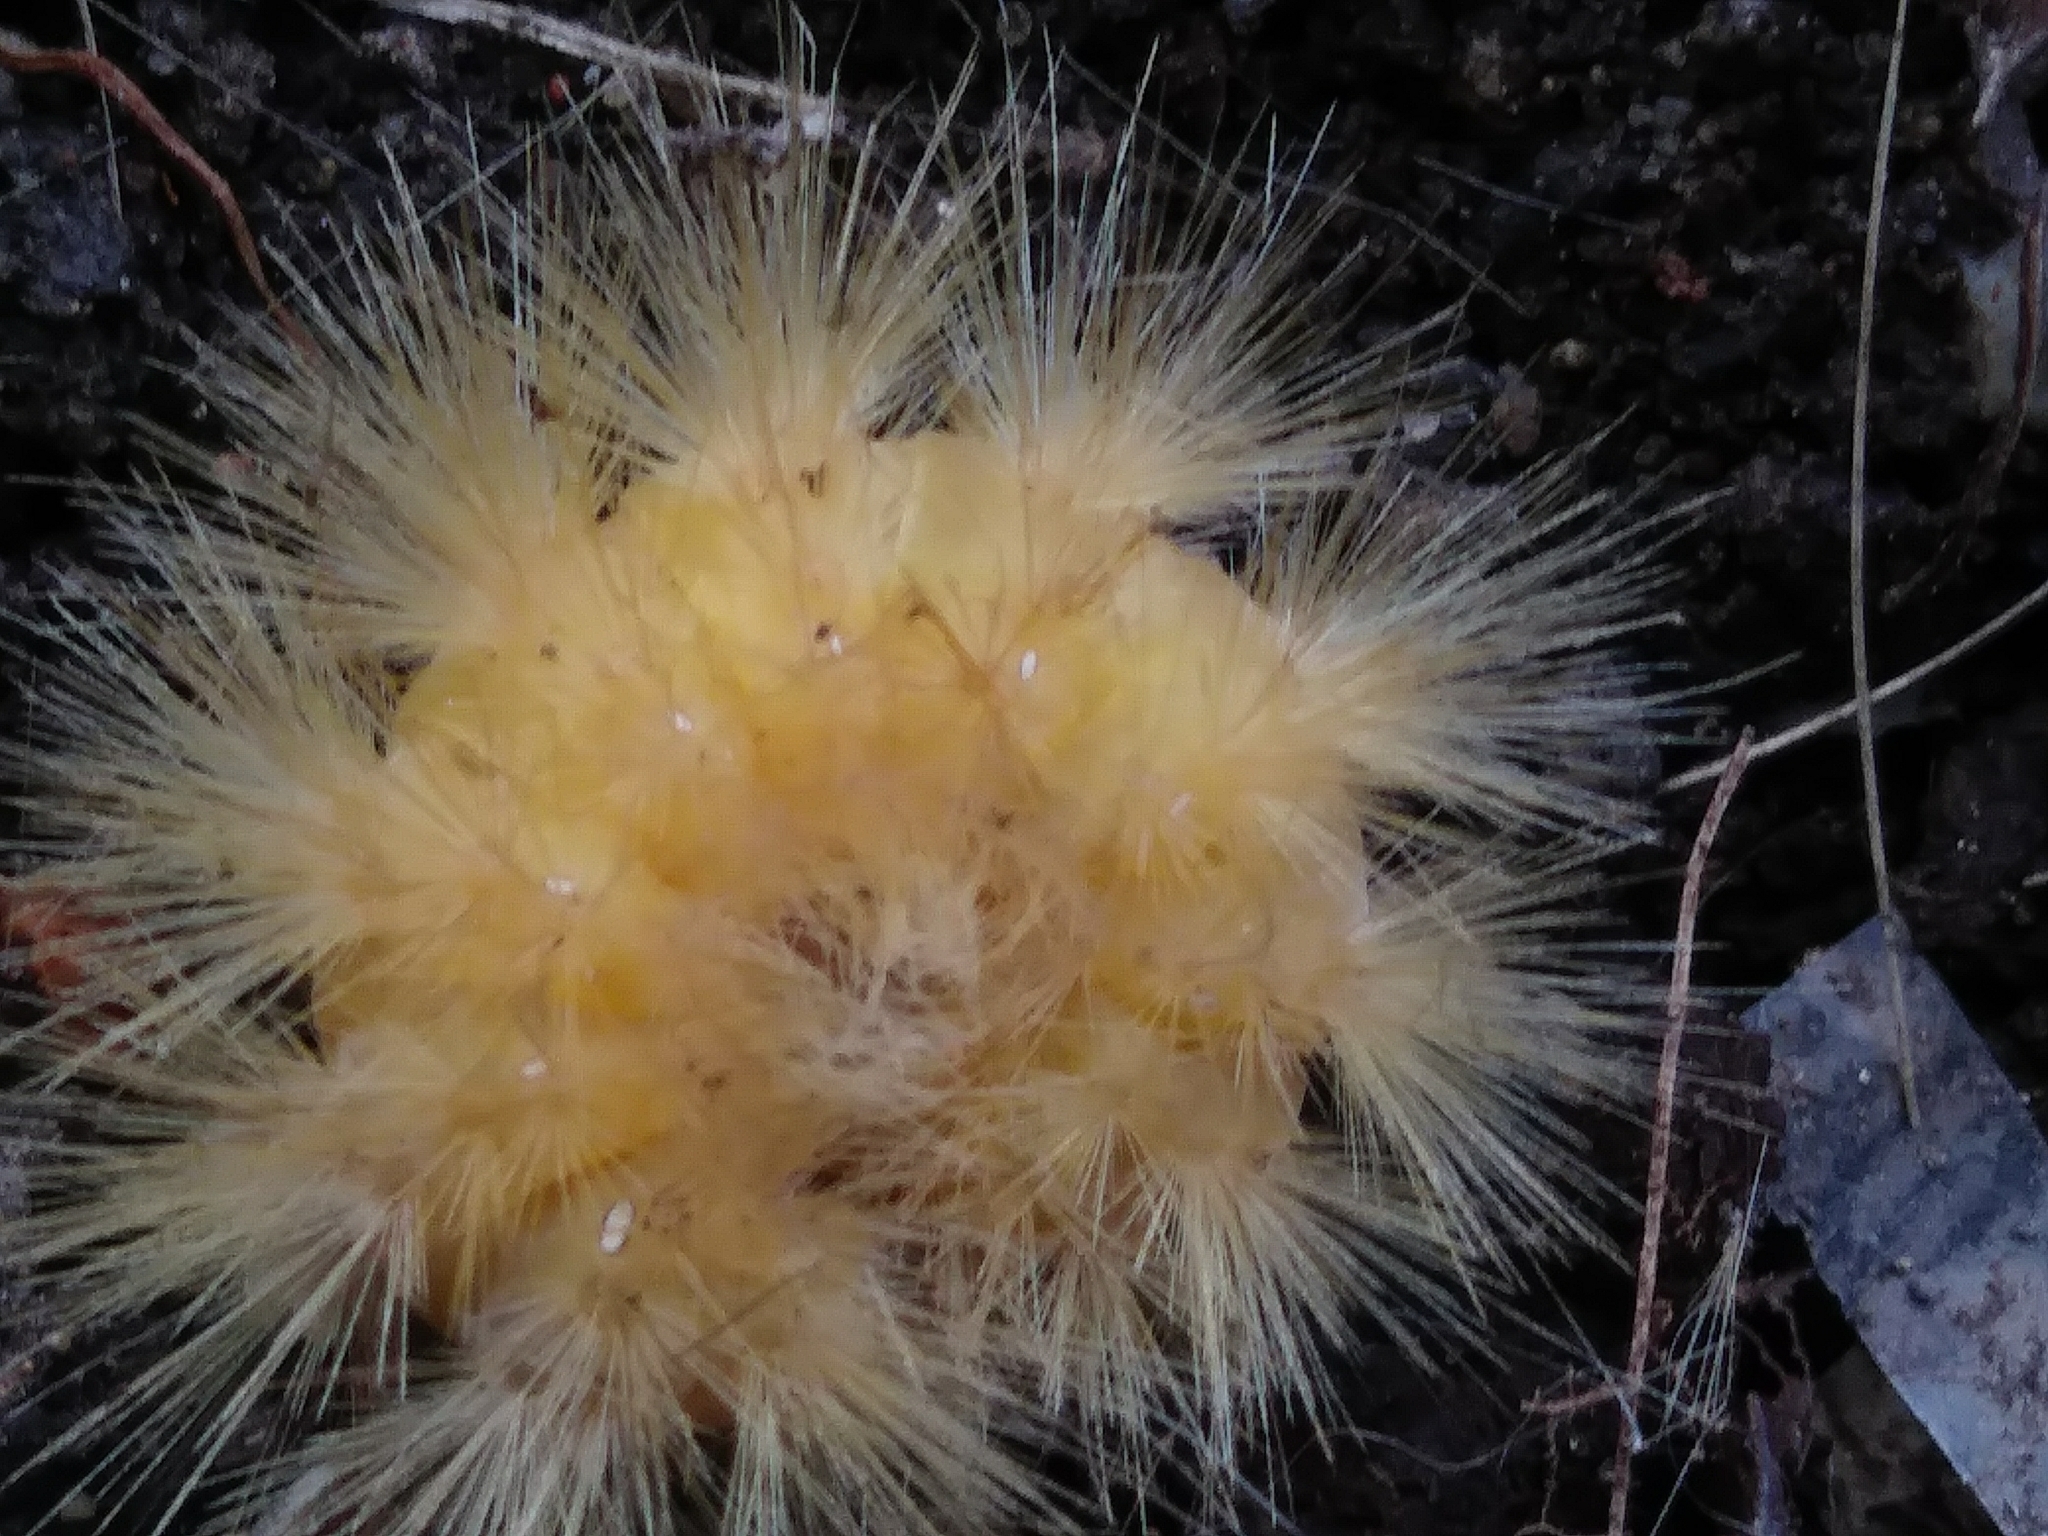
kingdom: Animalia
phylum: Arthropoda
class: Insecta
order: Lepidoptera
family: Erebidae
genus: Spilosoma
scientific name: Spilosoma virginica
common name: Virginia tiger moth
